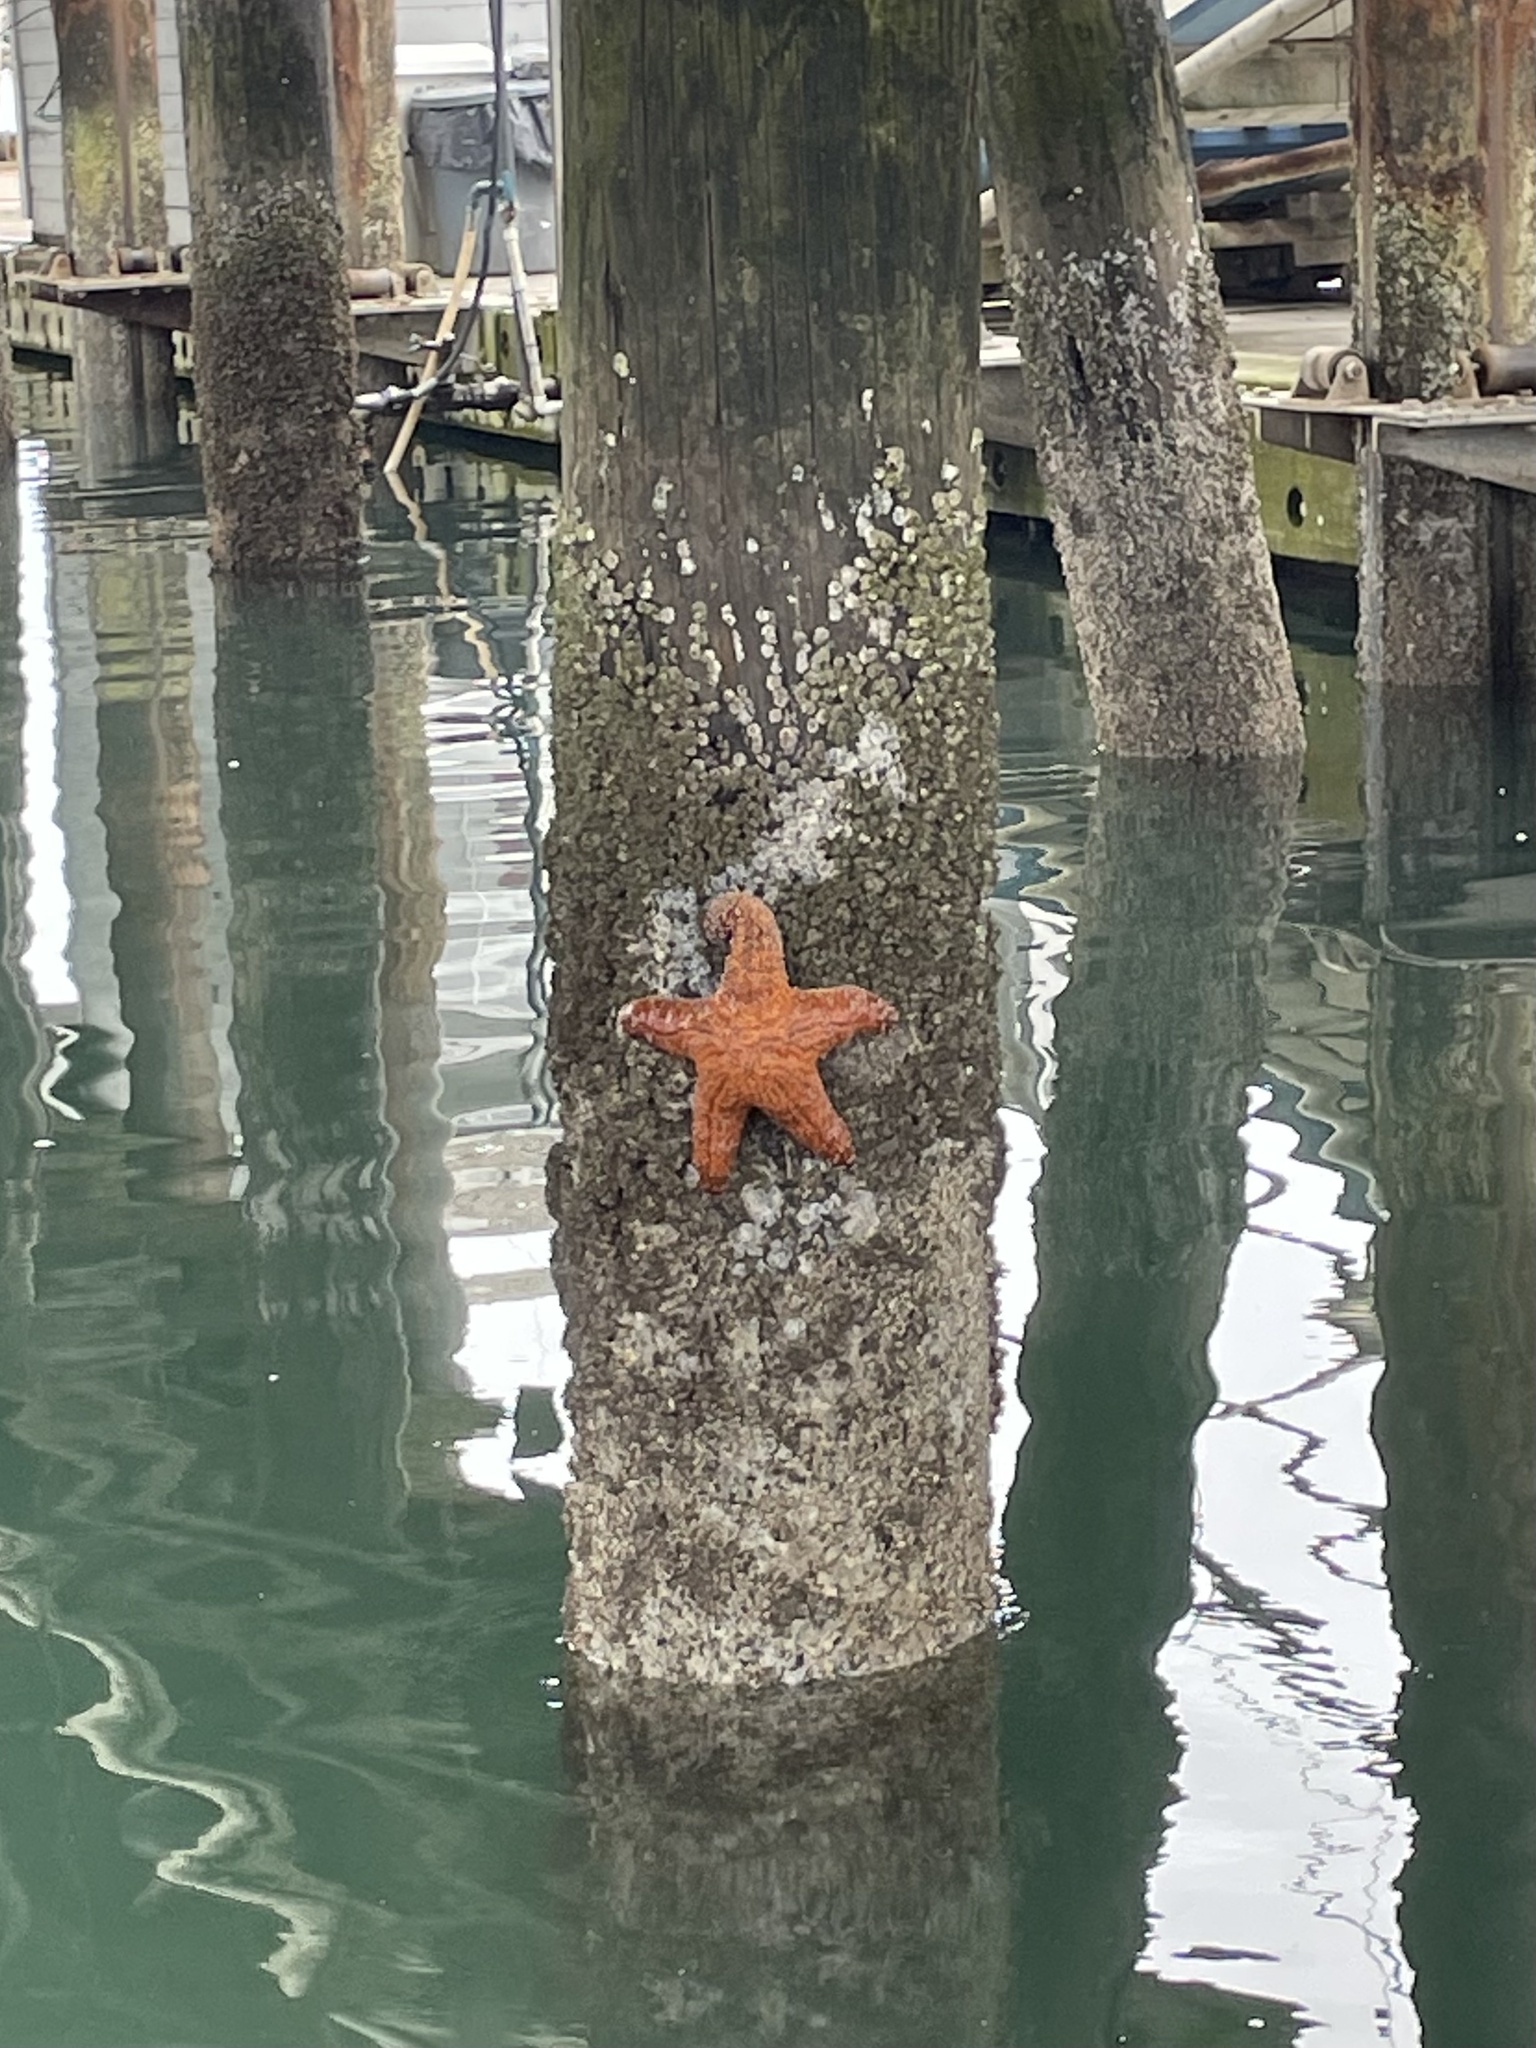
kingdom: Animalia
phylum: Echinodermata
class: Asteroidea
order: Forcipulatida
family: Asteriidae
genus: Pisaster
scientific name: Pisaster ochraceus
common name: Ochre stars
